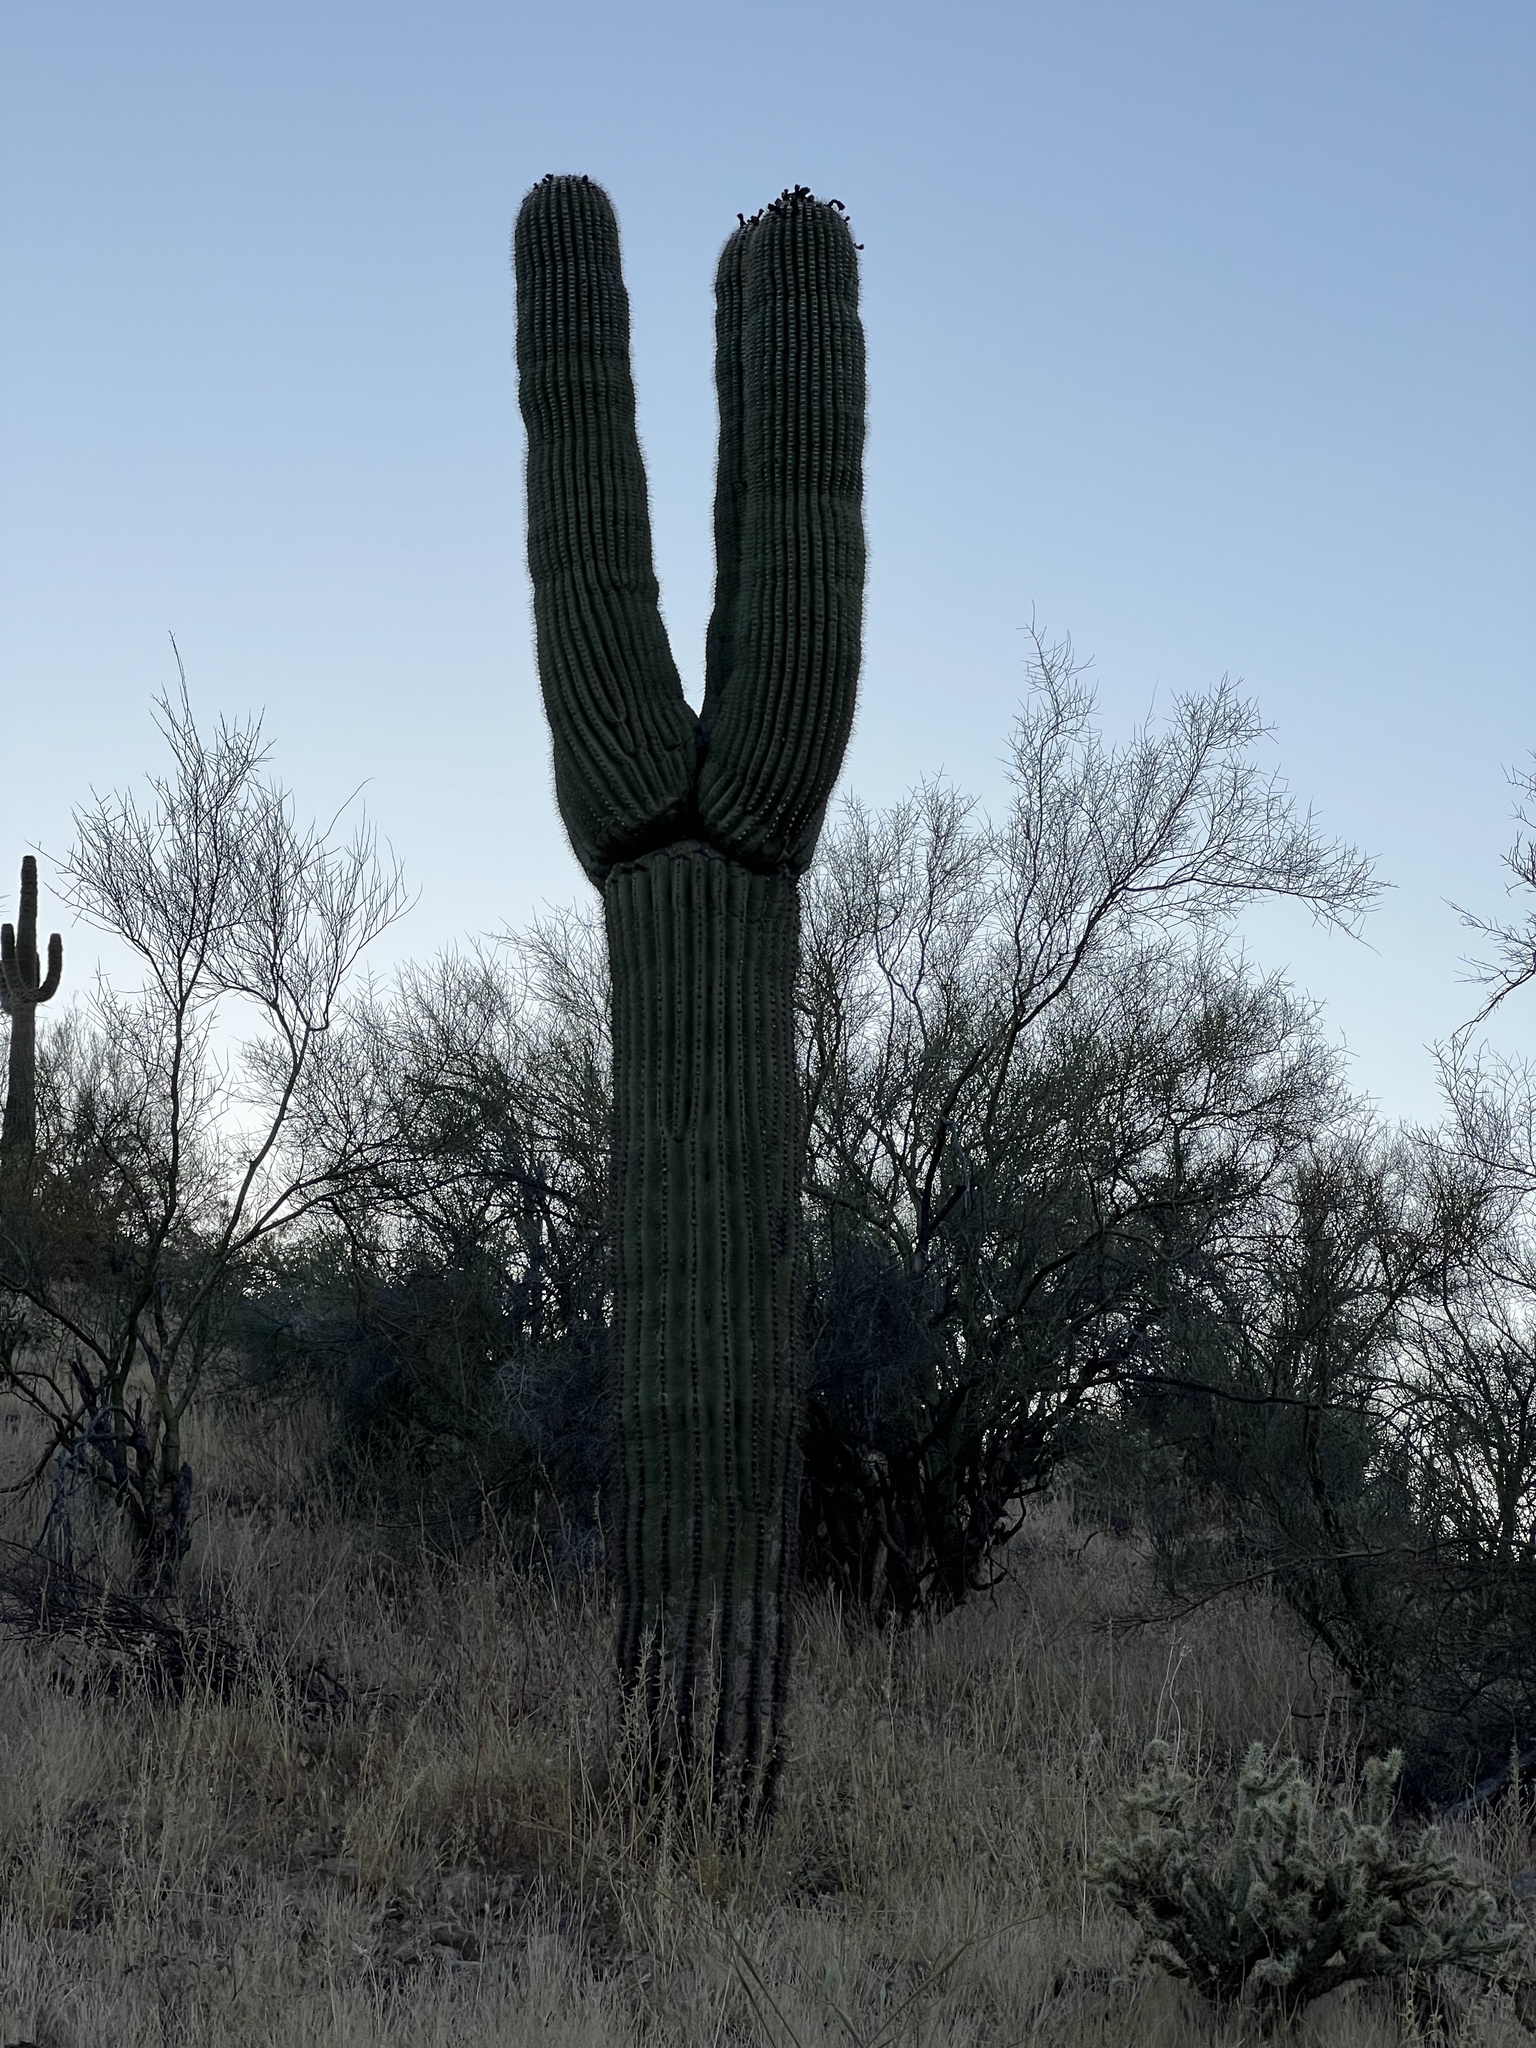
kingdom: Plantae
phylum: Tracheophyta
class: Magnoliopsida
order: Caryophyllales
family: Cactaceae
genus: Carnegiea
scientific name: Carnegiea gigantea
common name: Saguaro
